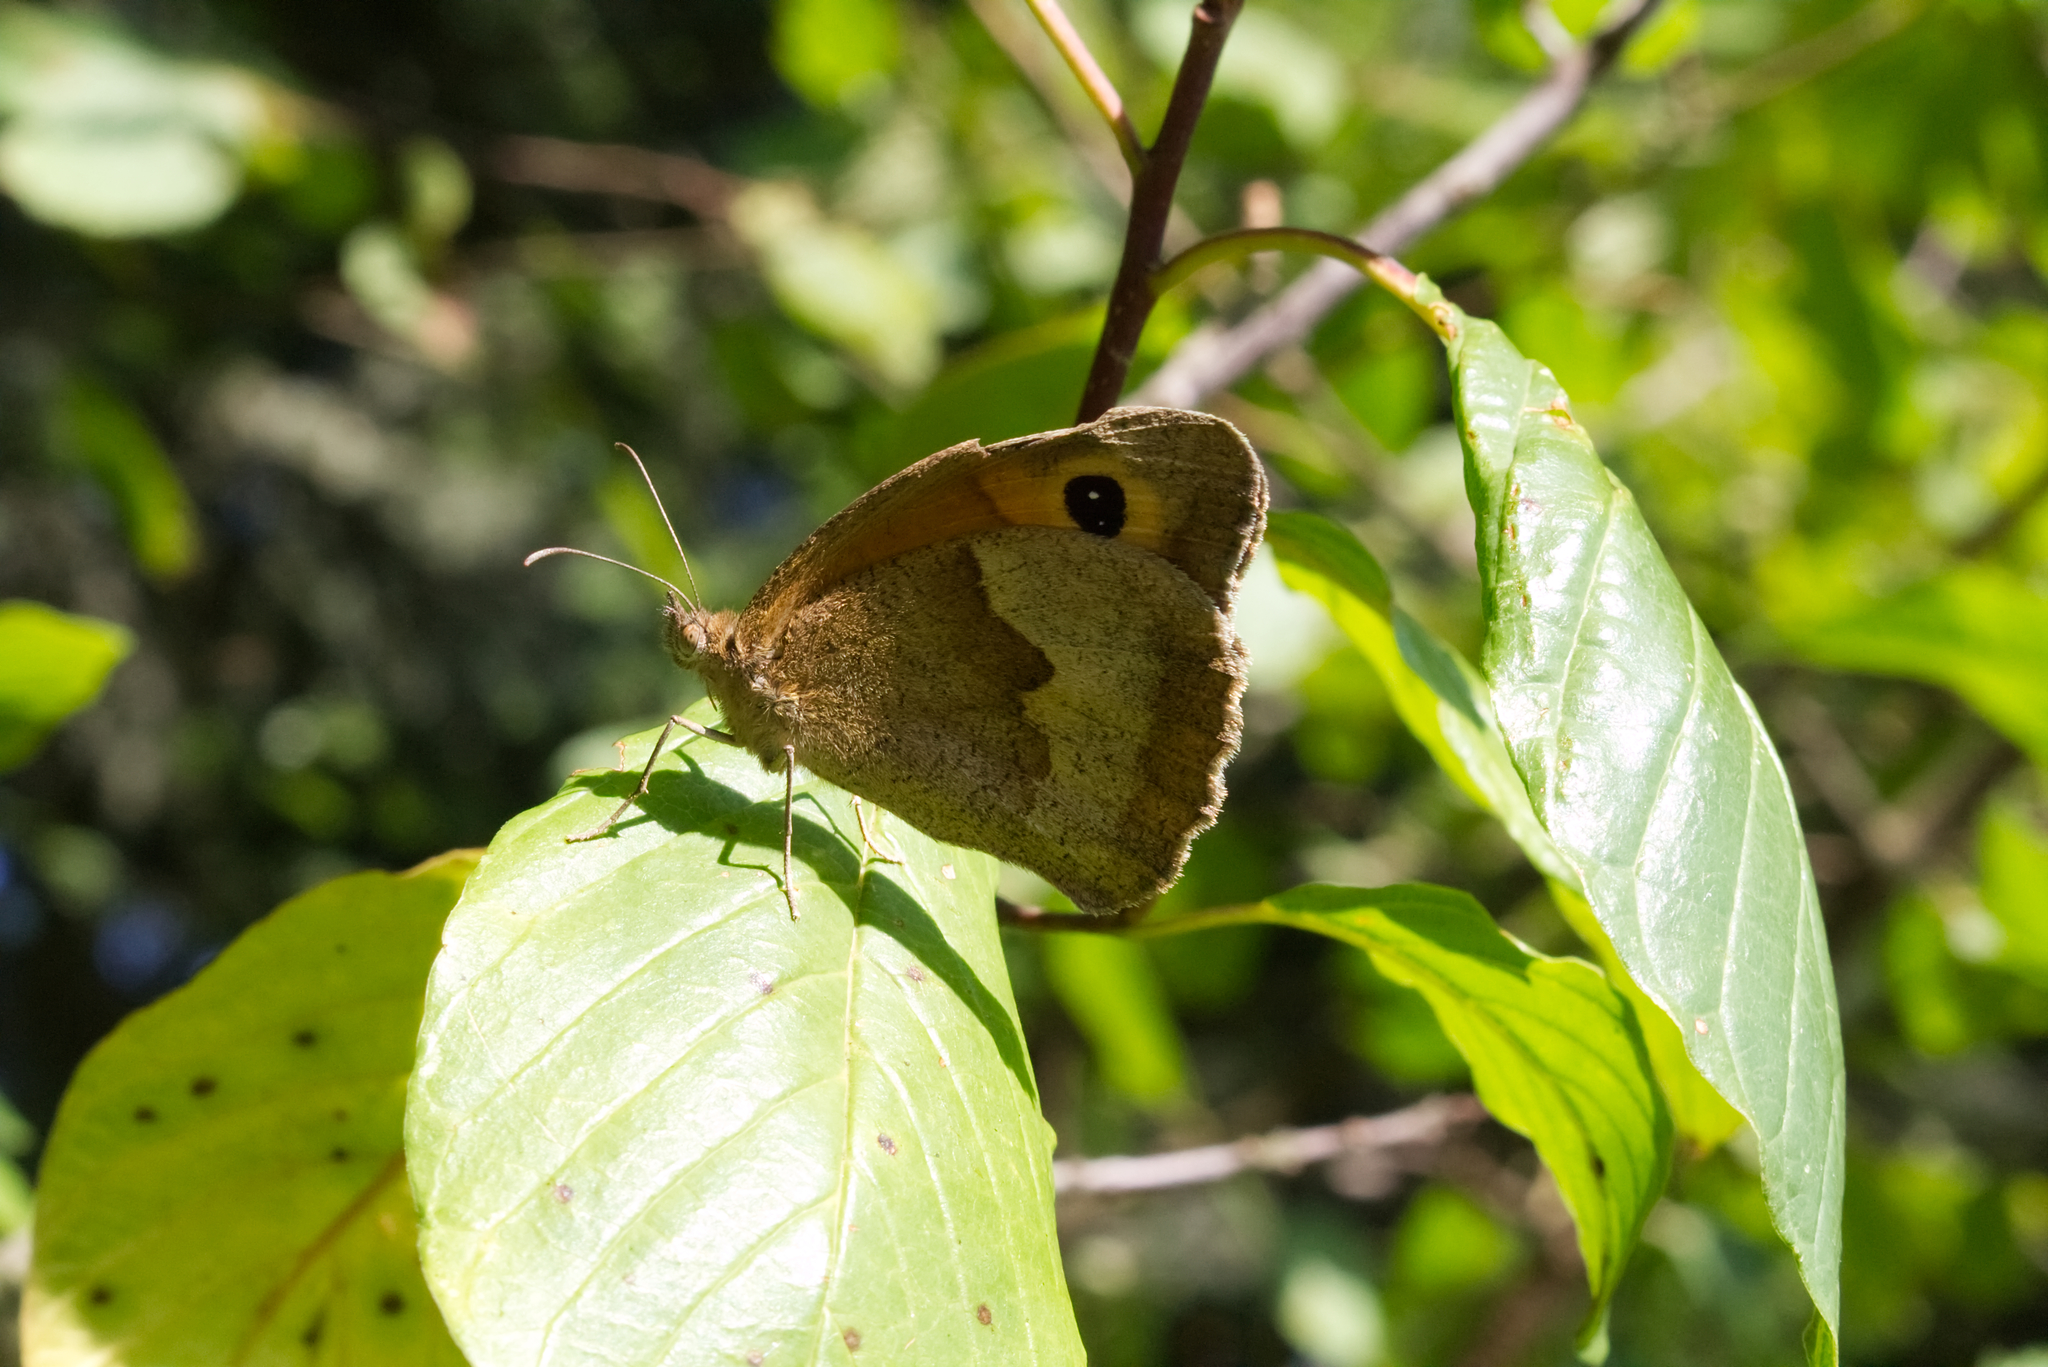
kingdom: Animalia
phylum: Arthropoda
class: Insecta
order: Lepidoptera
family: Nymphalidae
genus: Maniola
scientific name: Maniola jurtina
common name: Meadow brown
